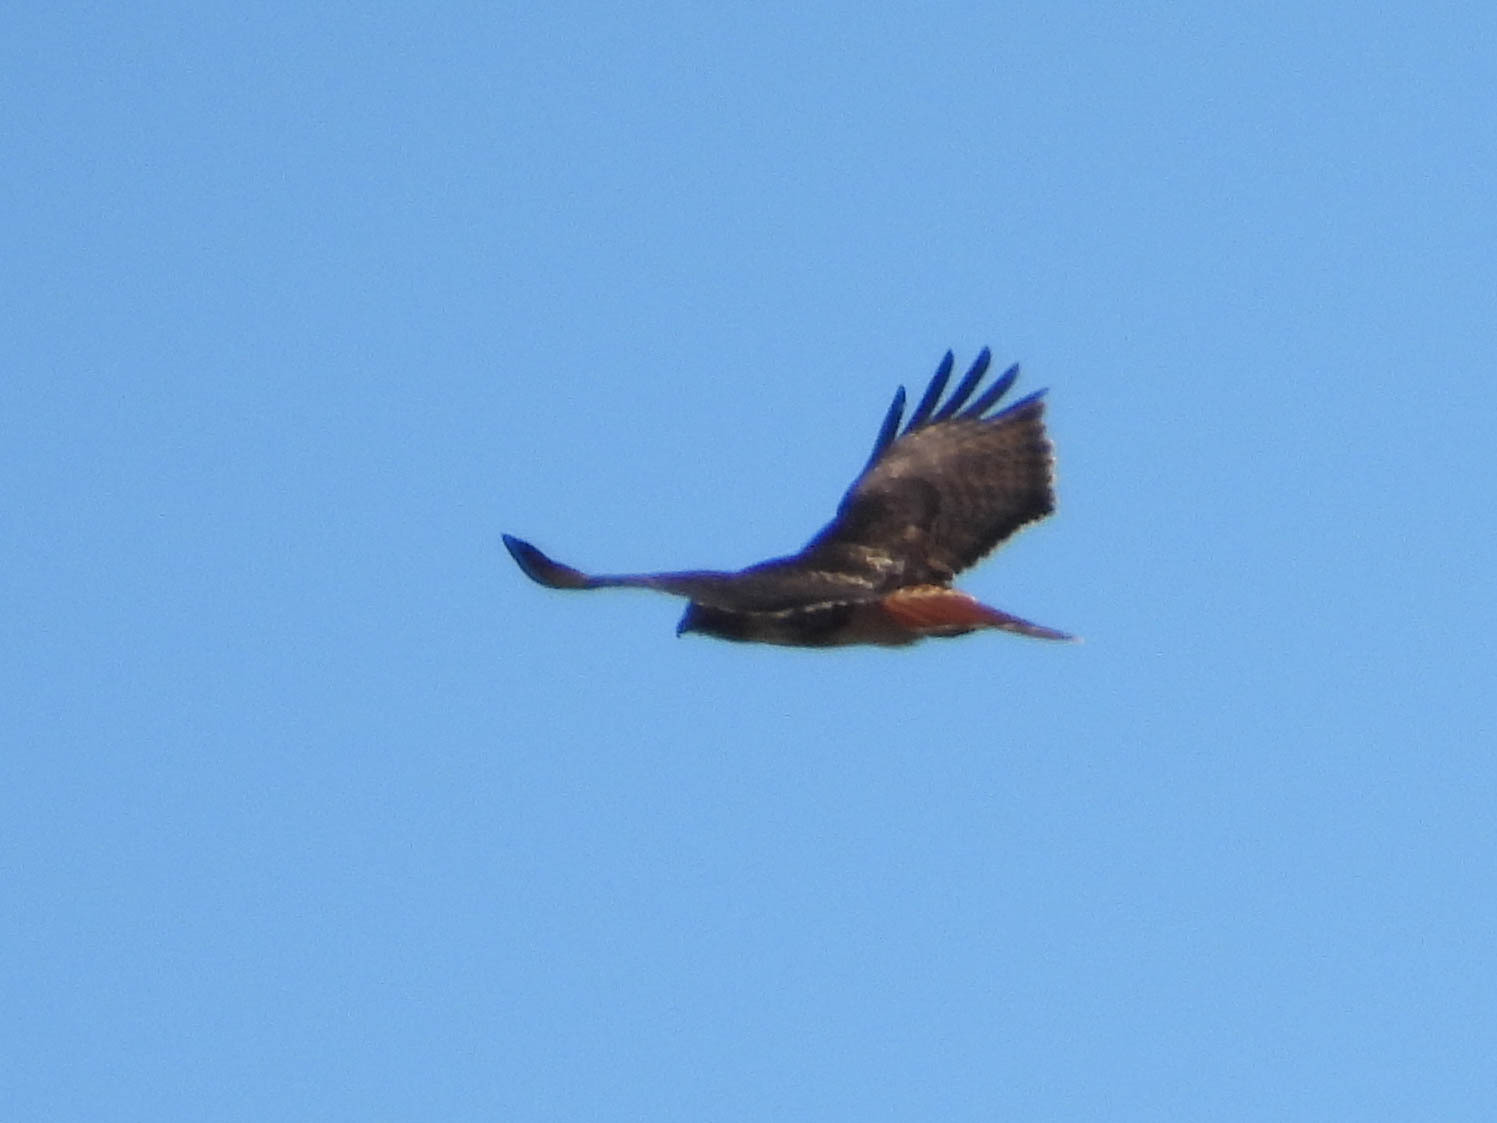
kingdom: Animalia
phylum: Chordata
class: Aves
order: Accipitriformes
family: Accipitridae
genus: Buteo
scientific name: Buteo jamaicensis
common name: Red-tailed hawk
